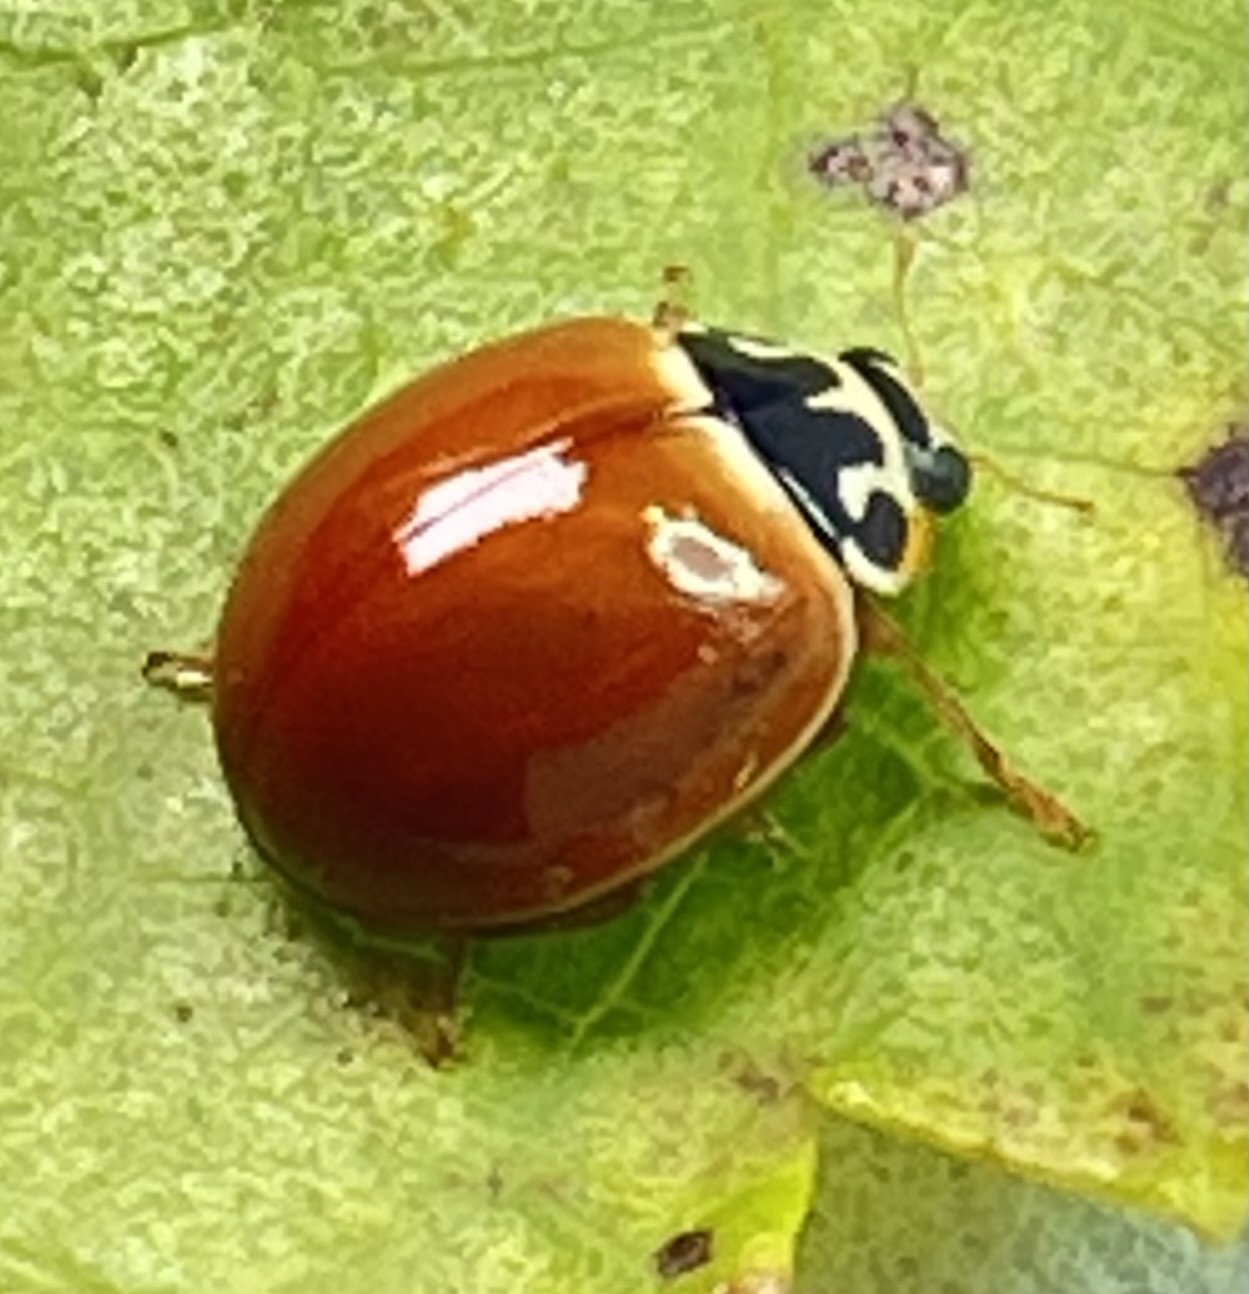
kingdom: Animalia
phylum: Arthropoda
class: Insecta
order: Coleoptera
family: Coccinellidae
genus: Cycloneda
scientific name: Cycloneda munda
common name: Polished lady beetle
